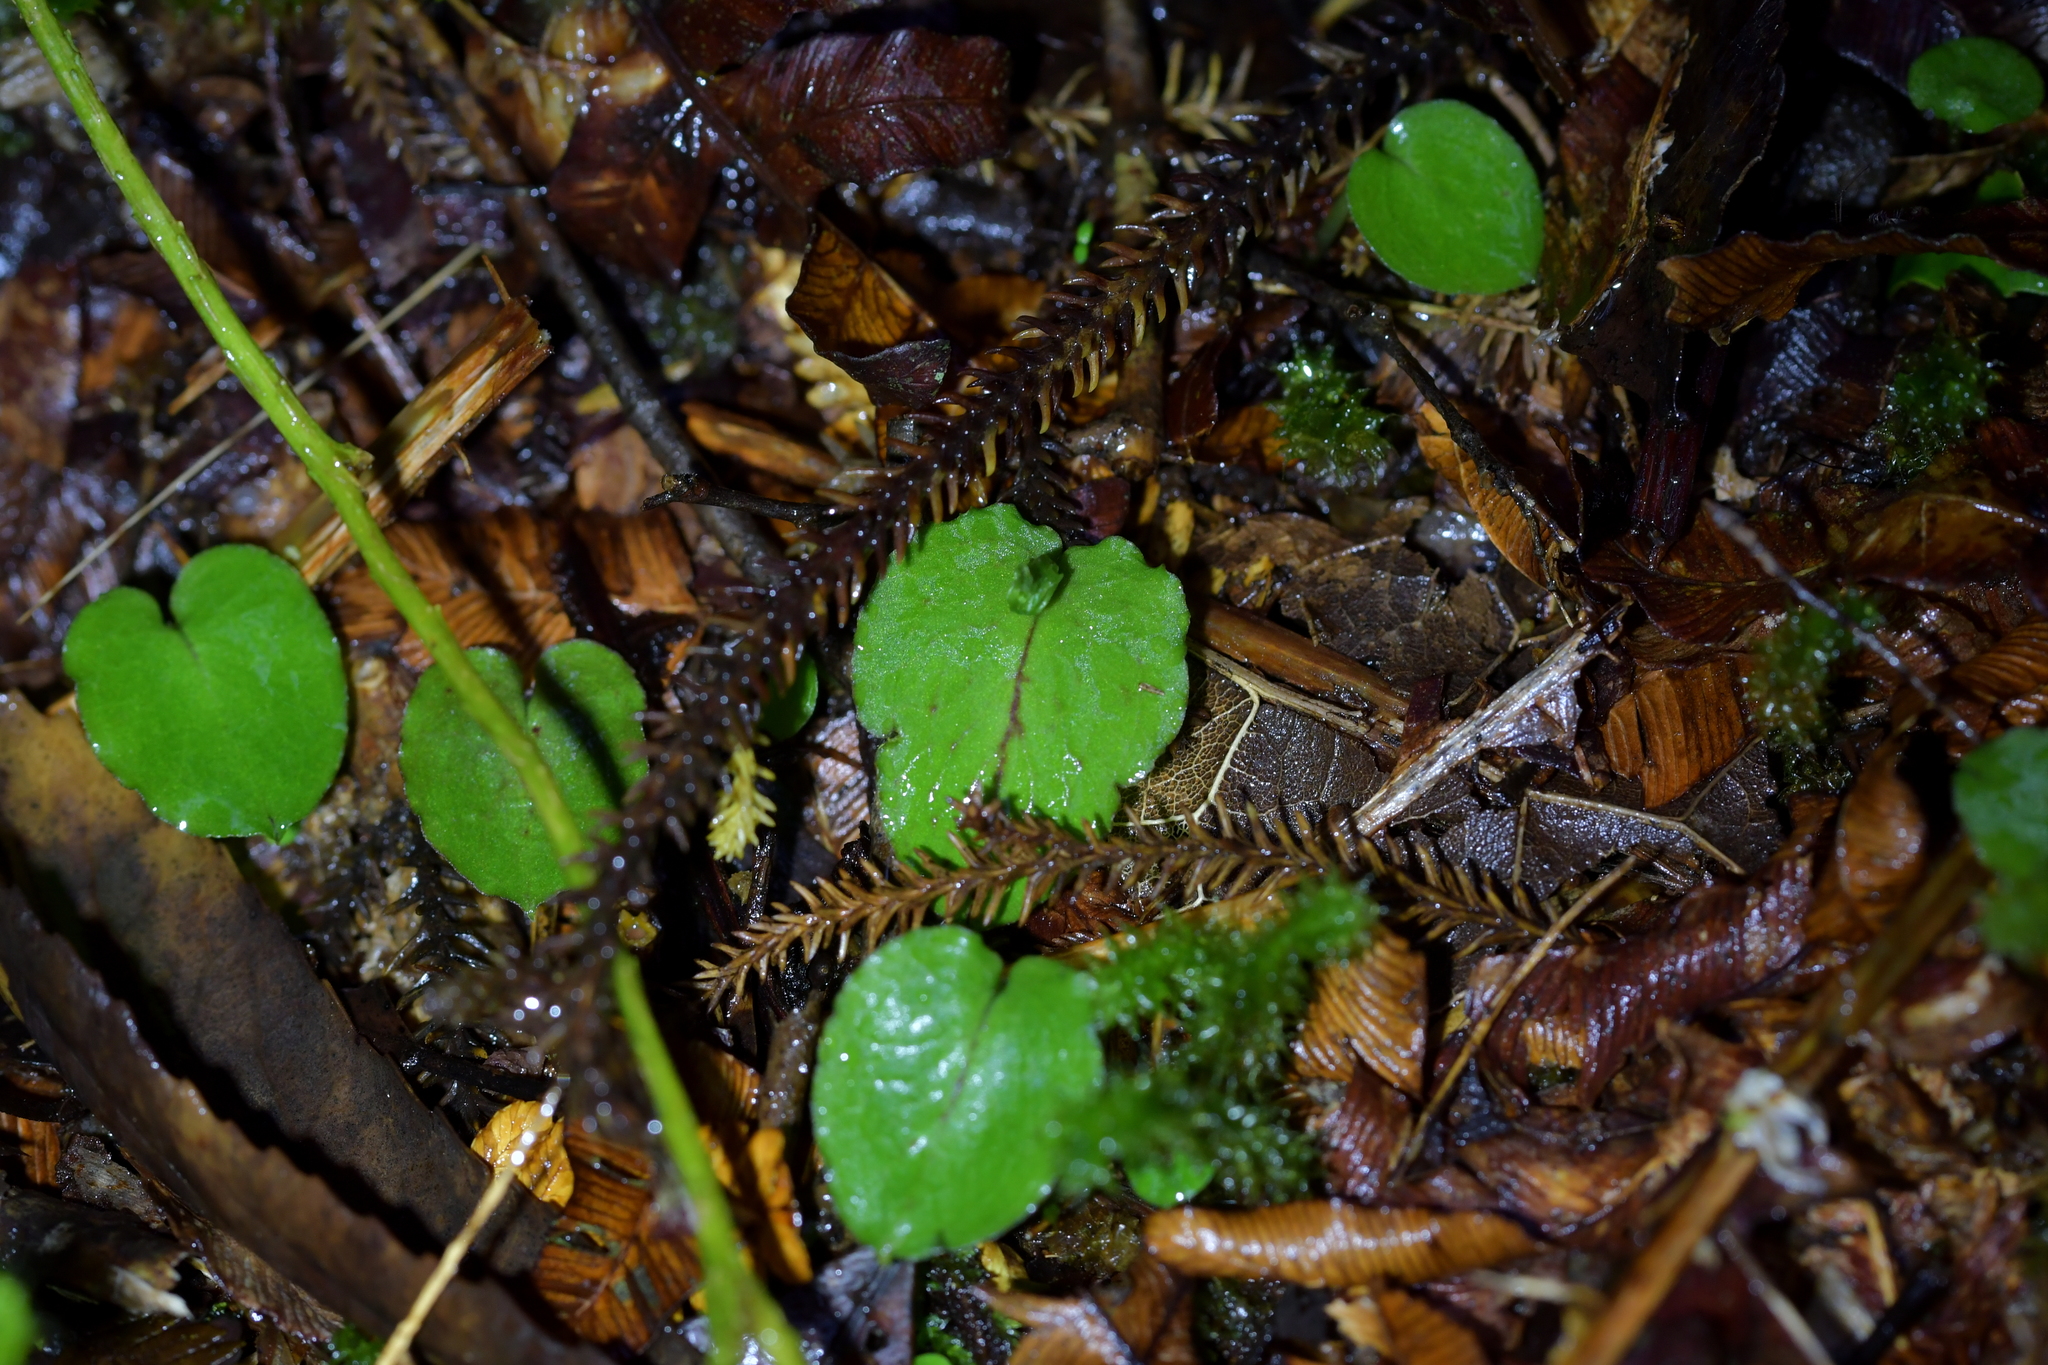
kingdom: Plantae
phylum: Tracheophyta
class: Liliopsida
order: Asparagales
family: Orchidaceae
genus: Corybas
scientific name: Corybas oblongus
